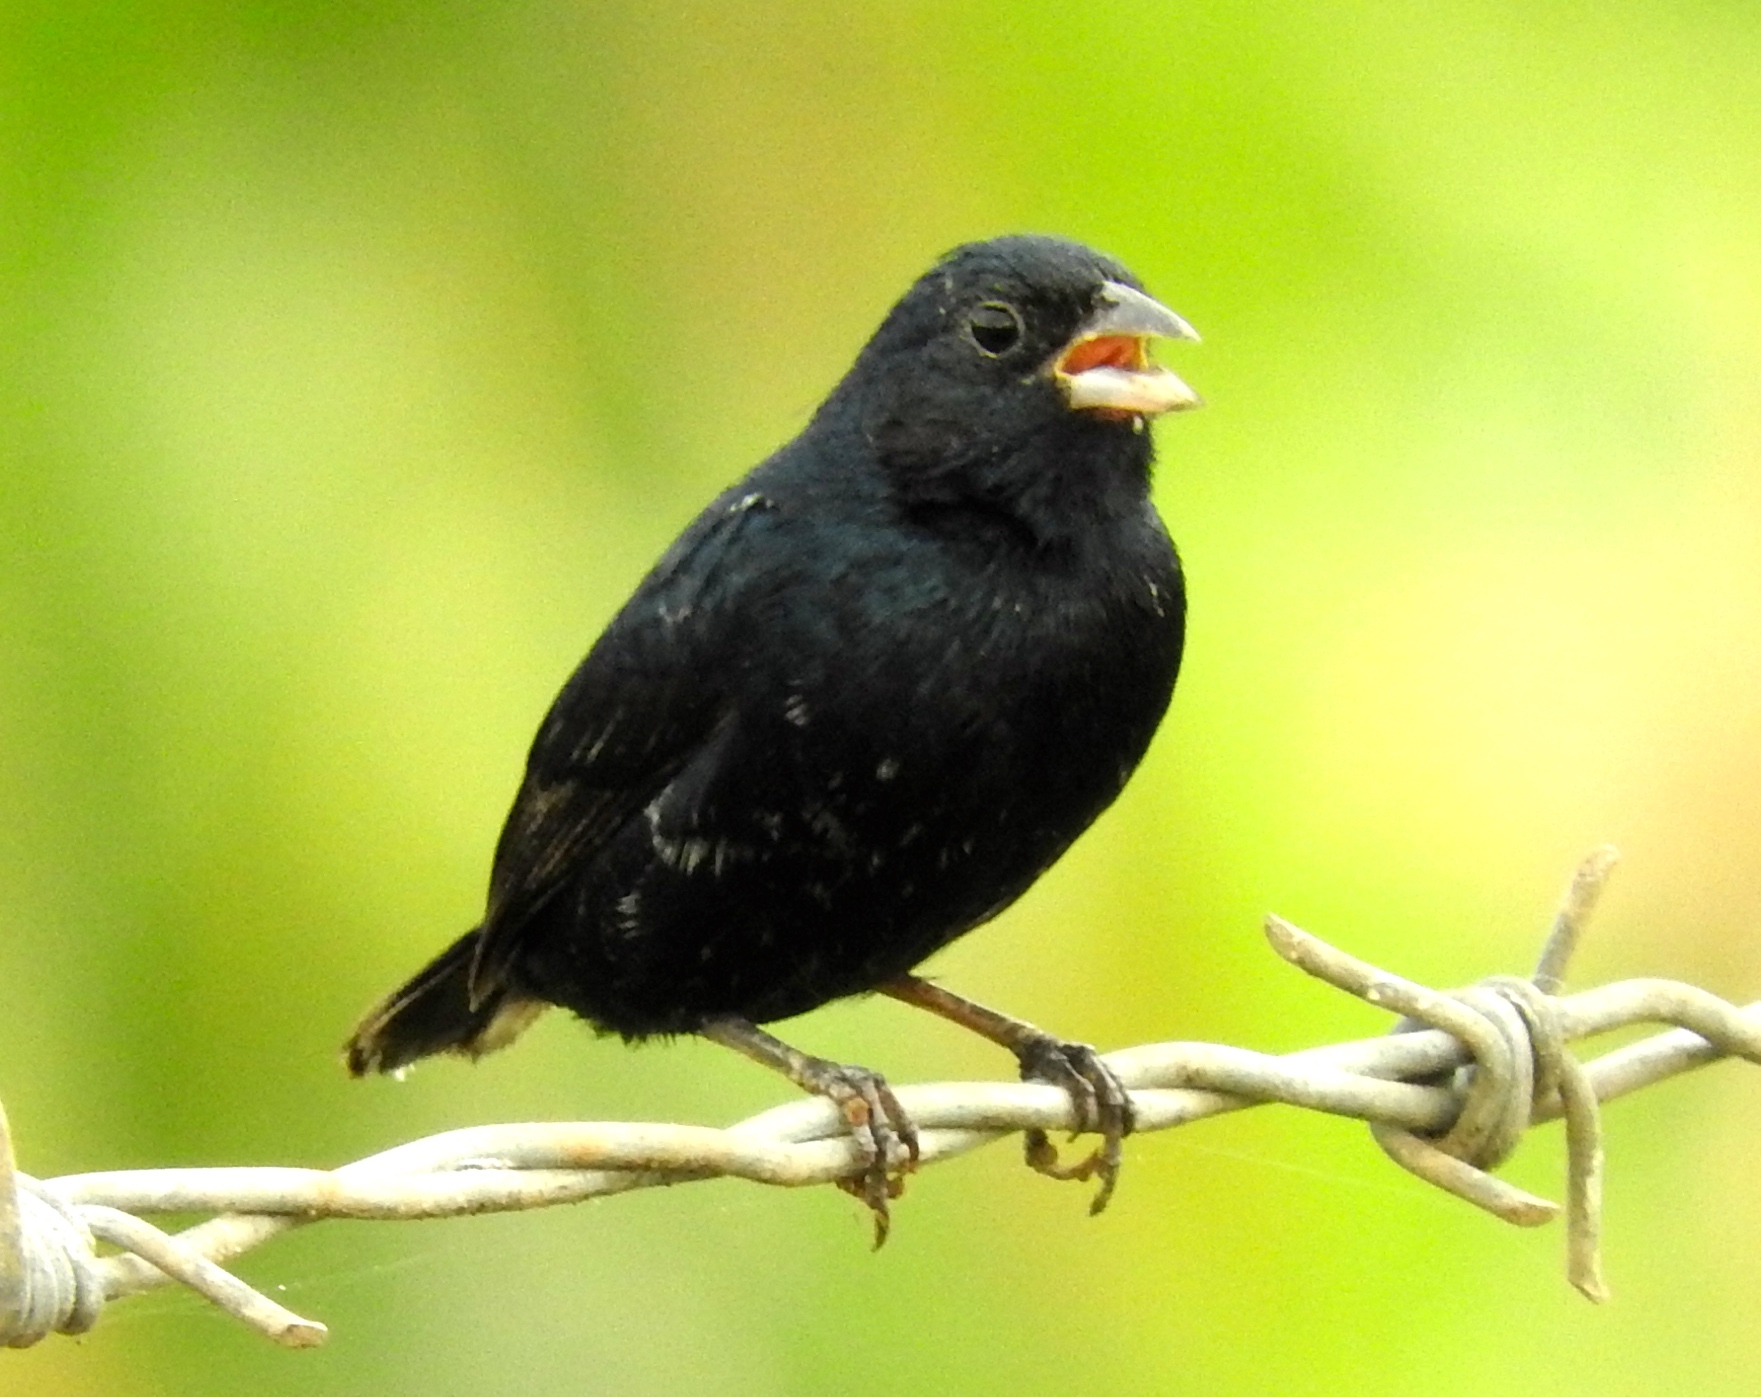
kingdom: Animalia
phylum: Chordata
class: Aves
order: Passeriformes
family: Thraupidae
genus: Volatinia
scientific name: Volatinia jacarina
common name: Blue-black grassquit
